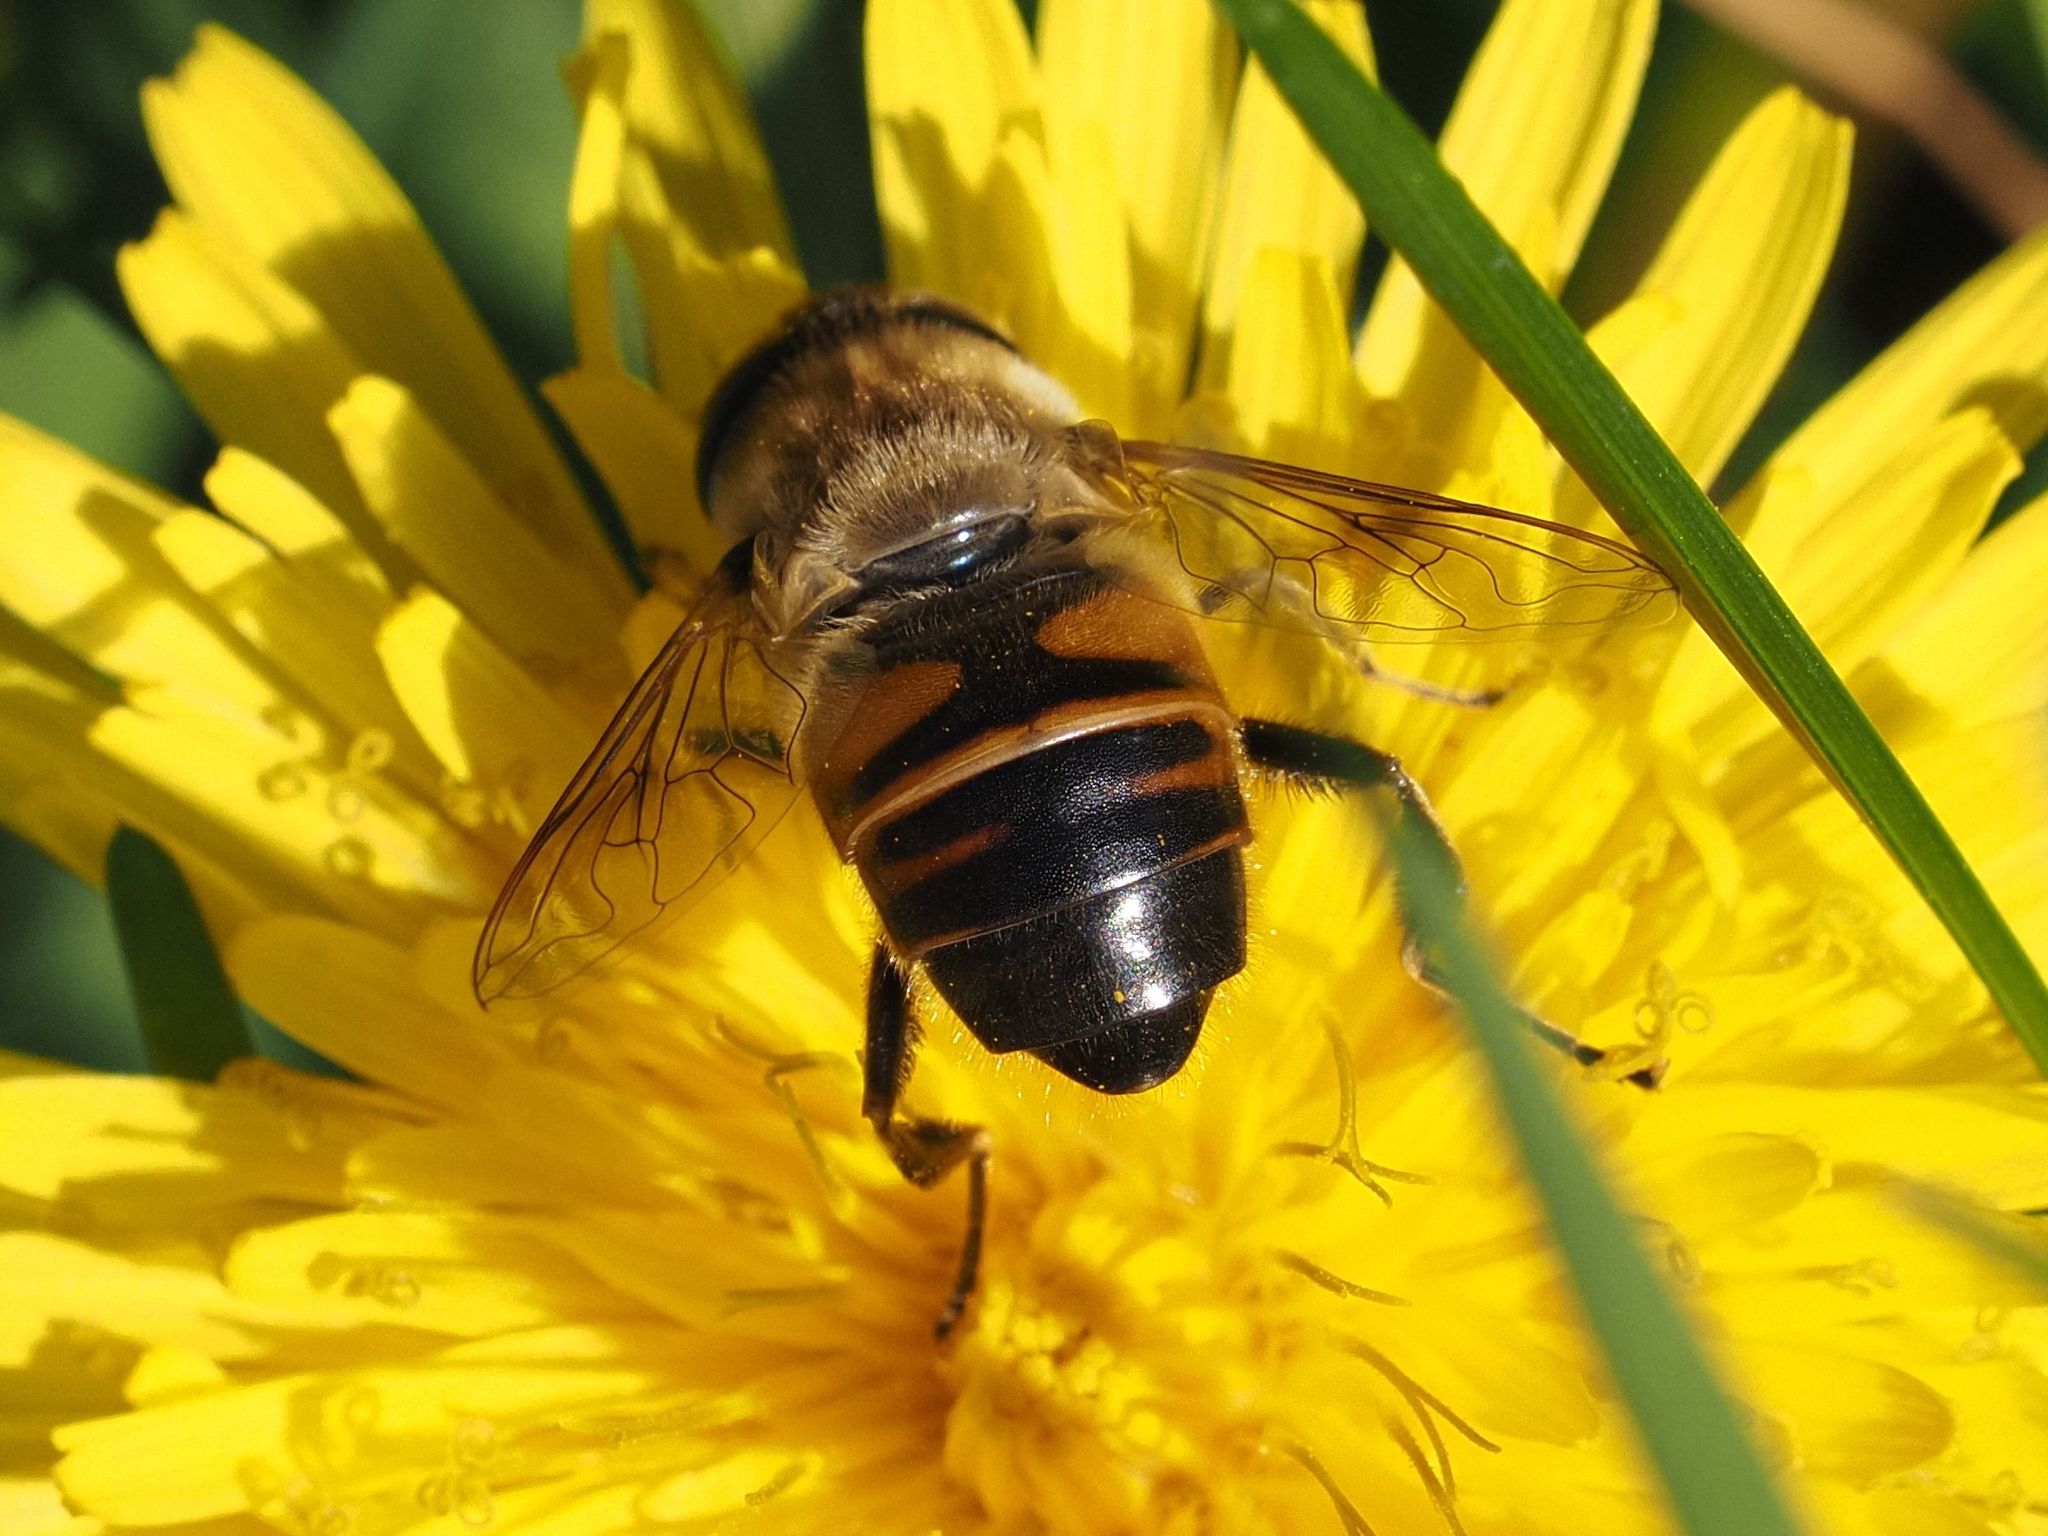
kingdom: Animalia
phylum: Arthropoda
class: Insecta
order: Diptera
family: Syrphidae
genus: Eristalis
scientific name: Eristalis tenax
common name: Drone fly
